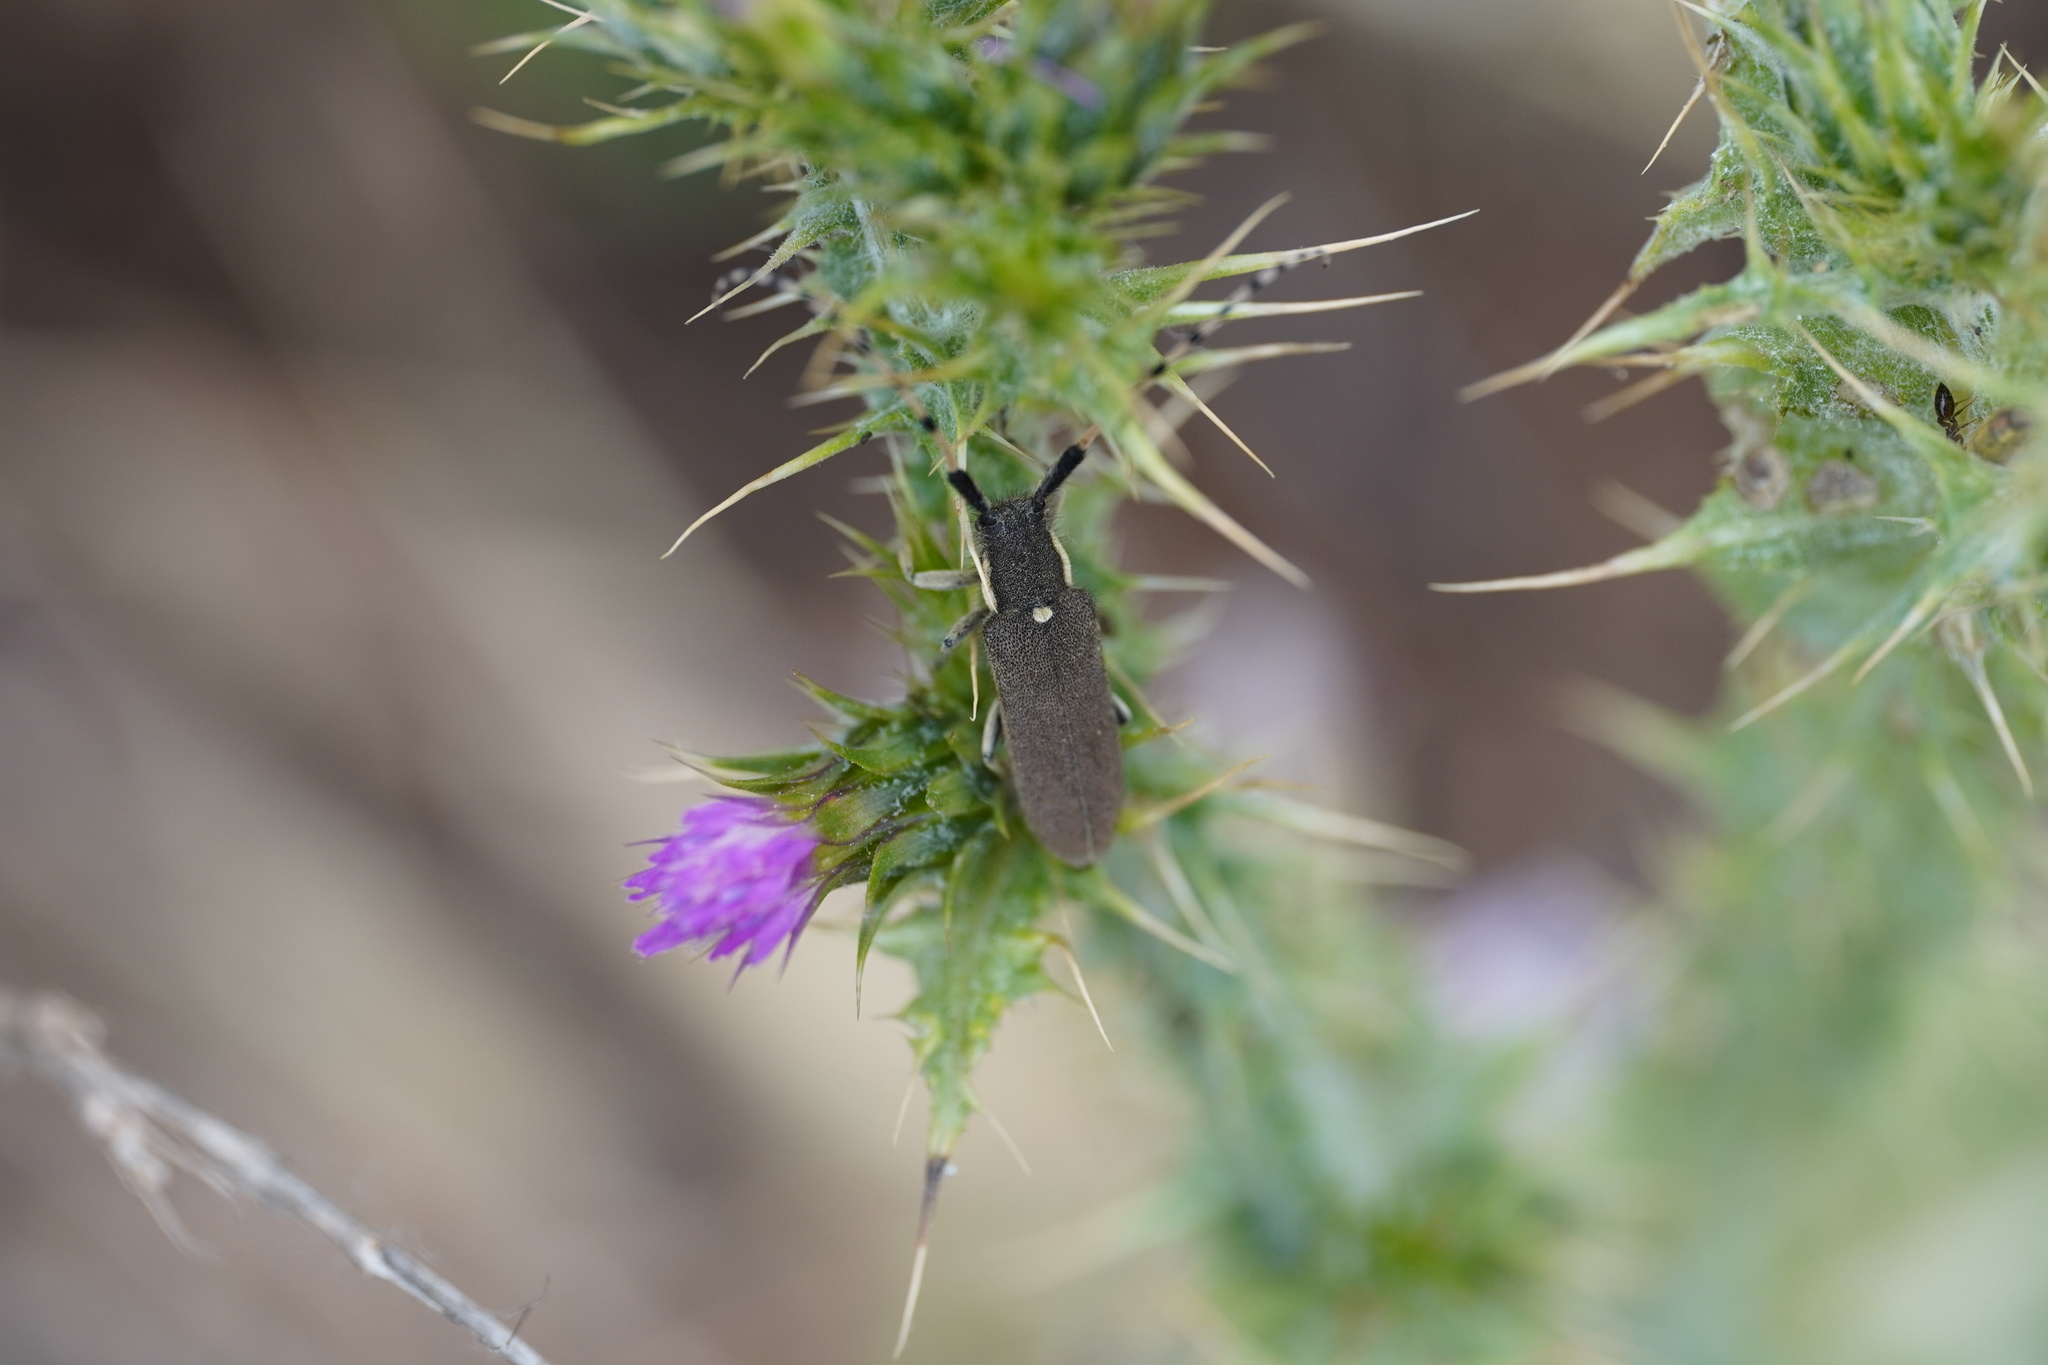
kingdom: Animalia
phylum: Arthropoda
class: Insecta
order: Coleoptera
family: Cerambycidae
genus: Agapanthia
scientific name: Agapanthia annularis
